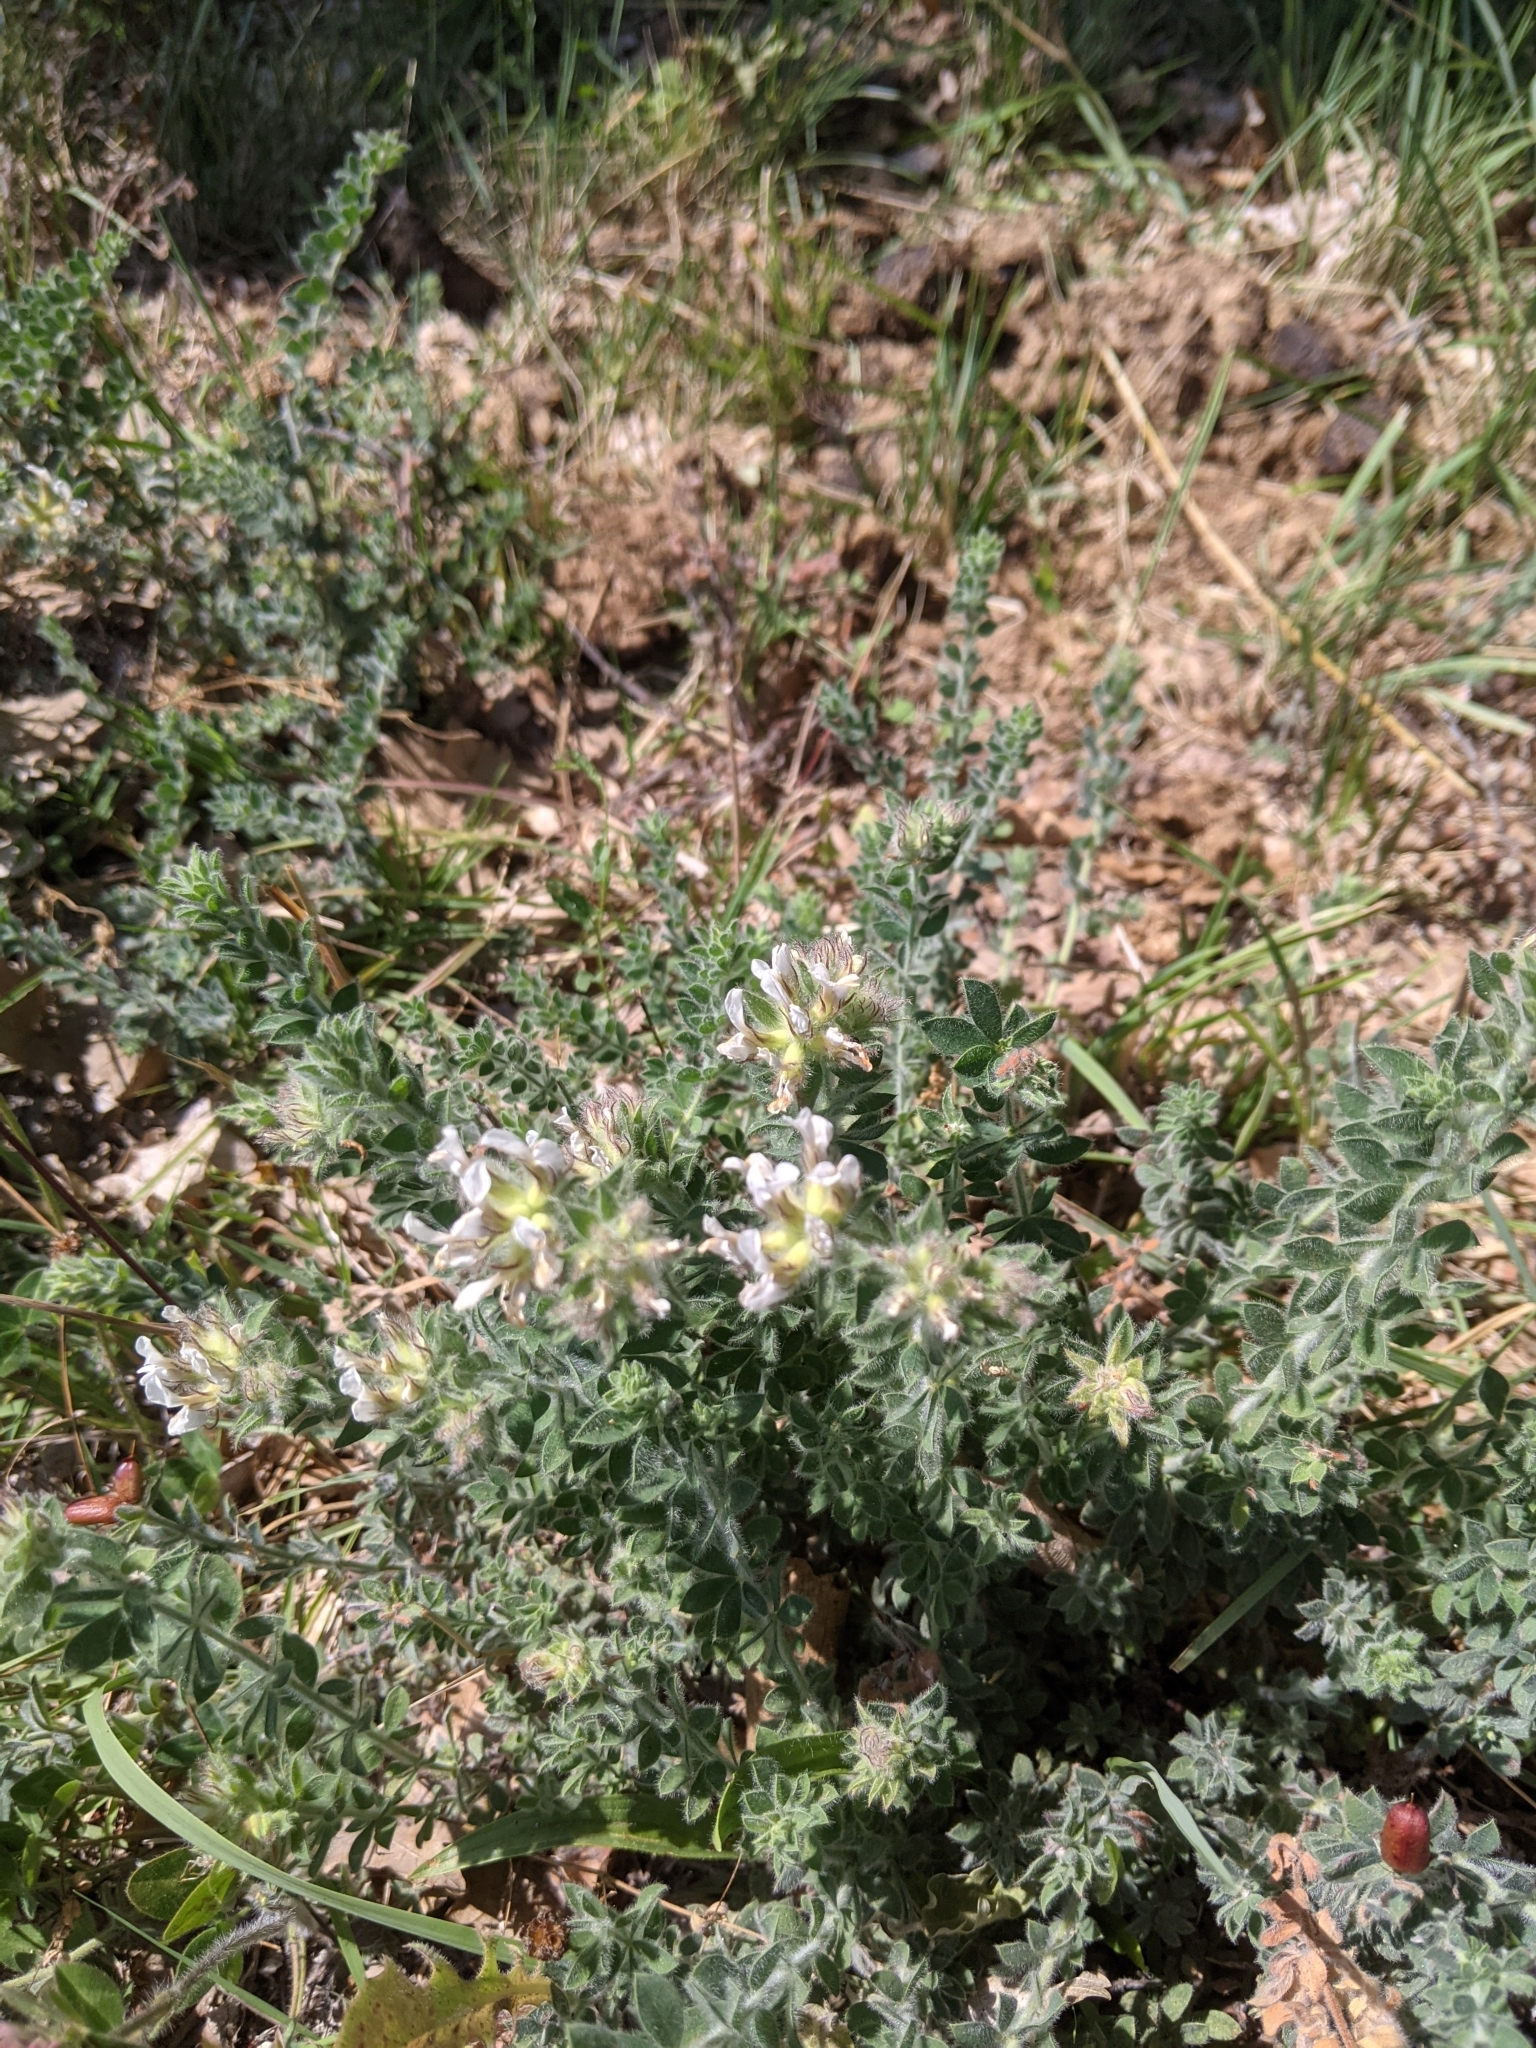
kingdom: Plantae
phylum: Tracheophyta
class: Magnoliopsida
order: Fabales
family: Fabaceae
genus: Lotus
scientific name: Lotus hirsutus
